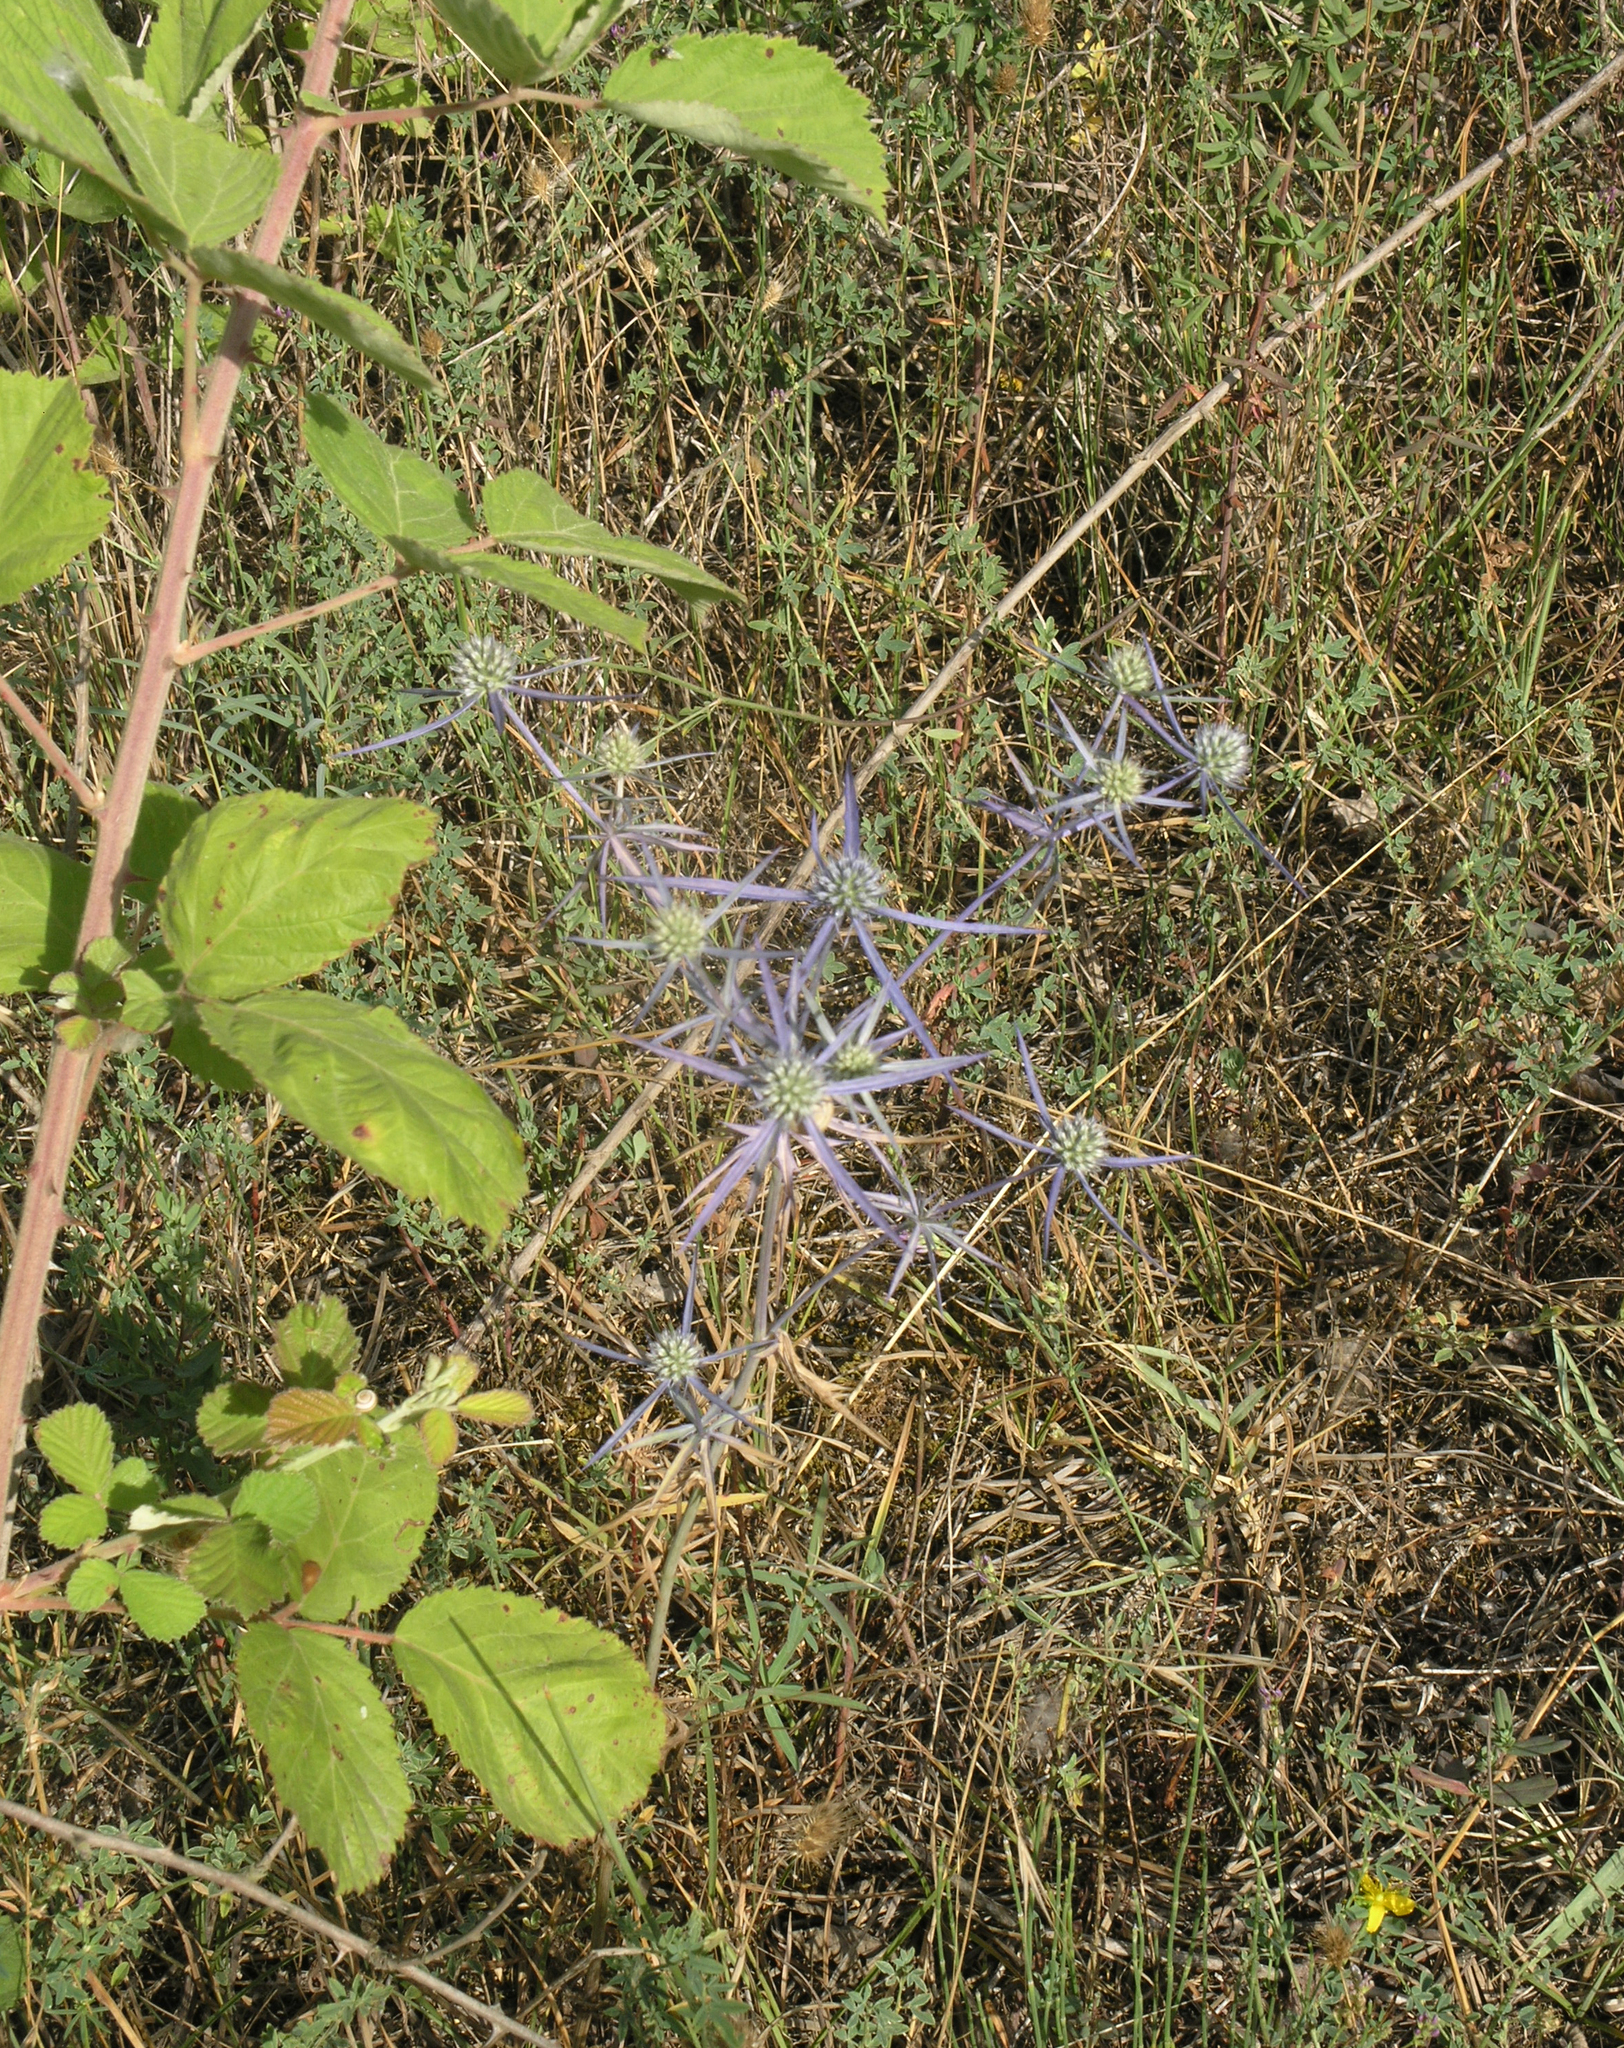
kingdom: Plantae
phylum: Tracheophyta
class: Magnoliopsida
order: Apiales
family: Apiaceae
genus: Eryngium
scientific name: Eryngium caeruleum
